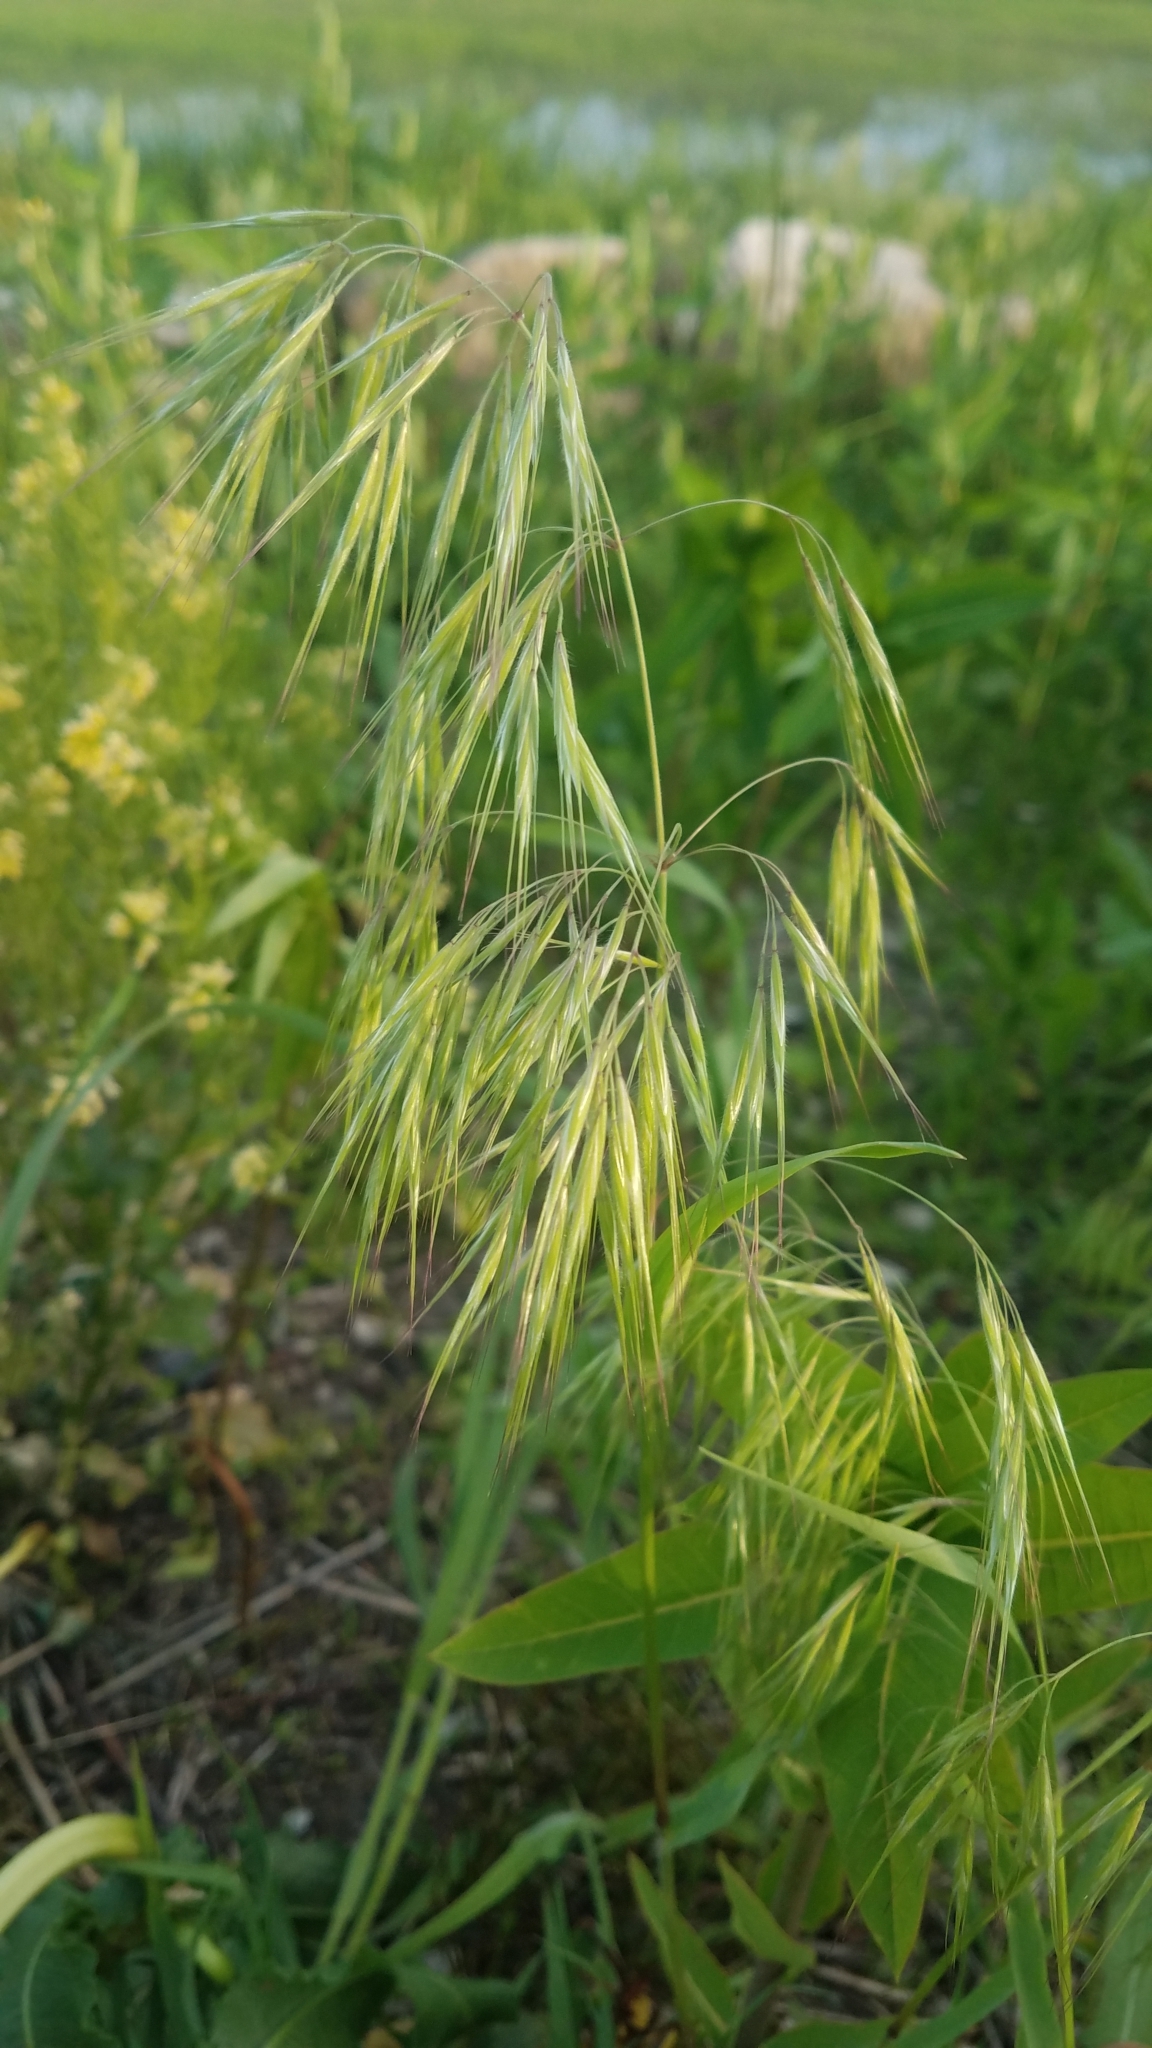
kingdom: Plantae
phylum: Tracheophyta
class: Liliopsida
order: Poales
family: Poaceae
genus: Bromus
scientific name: Bromus tectorum
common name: Cheatgrass
